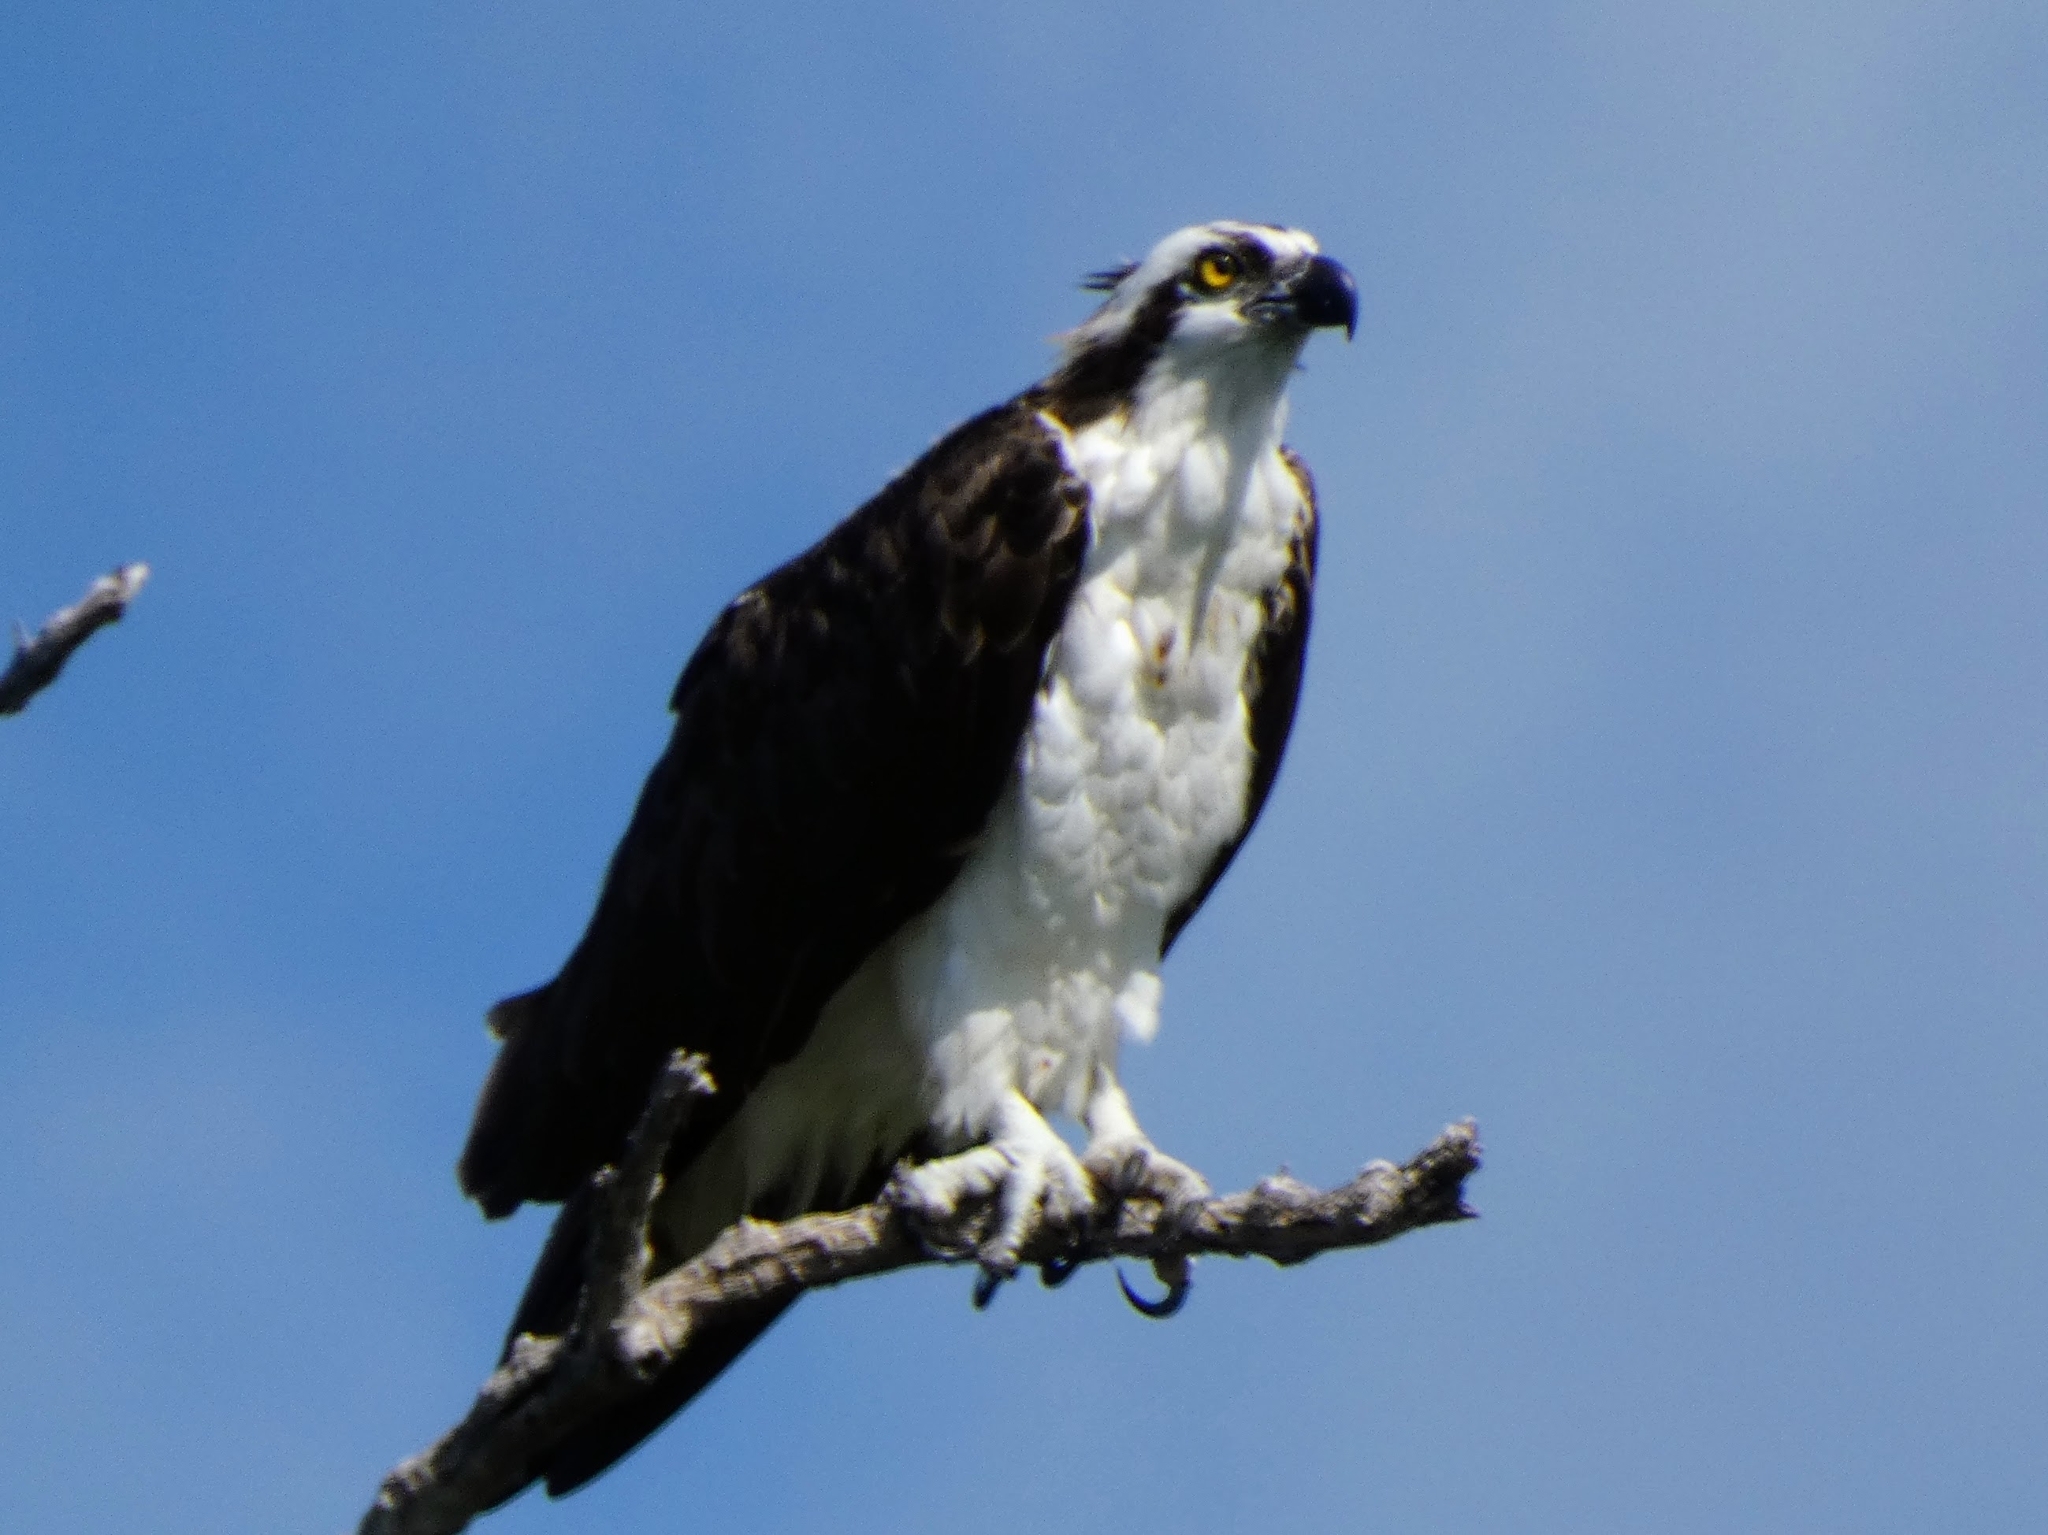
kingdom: Animalia
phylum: Chordata
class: Aves
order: Accipitriformes
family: Pandionidae
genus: Pandion
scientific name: Pandion haliaetus
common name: Osprey
